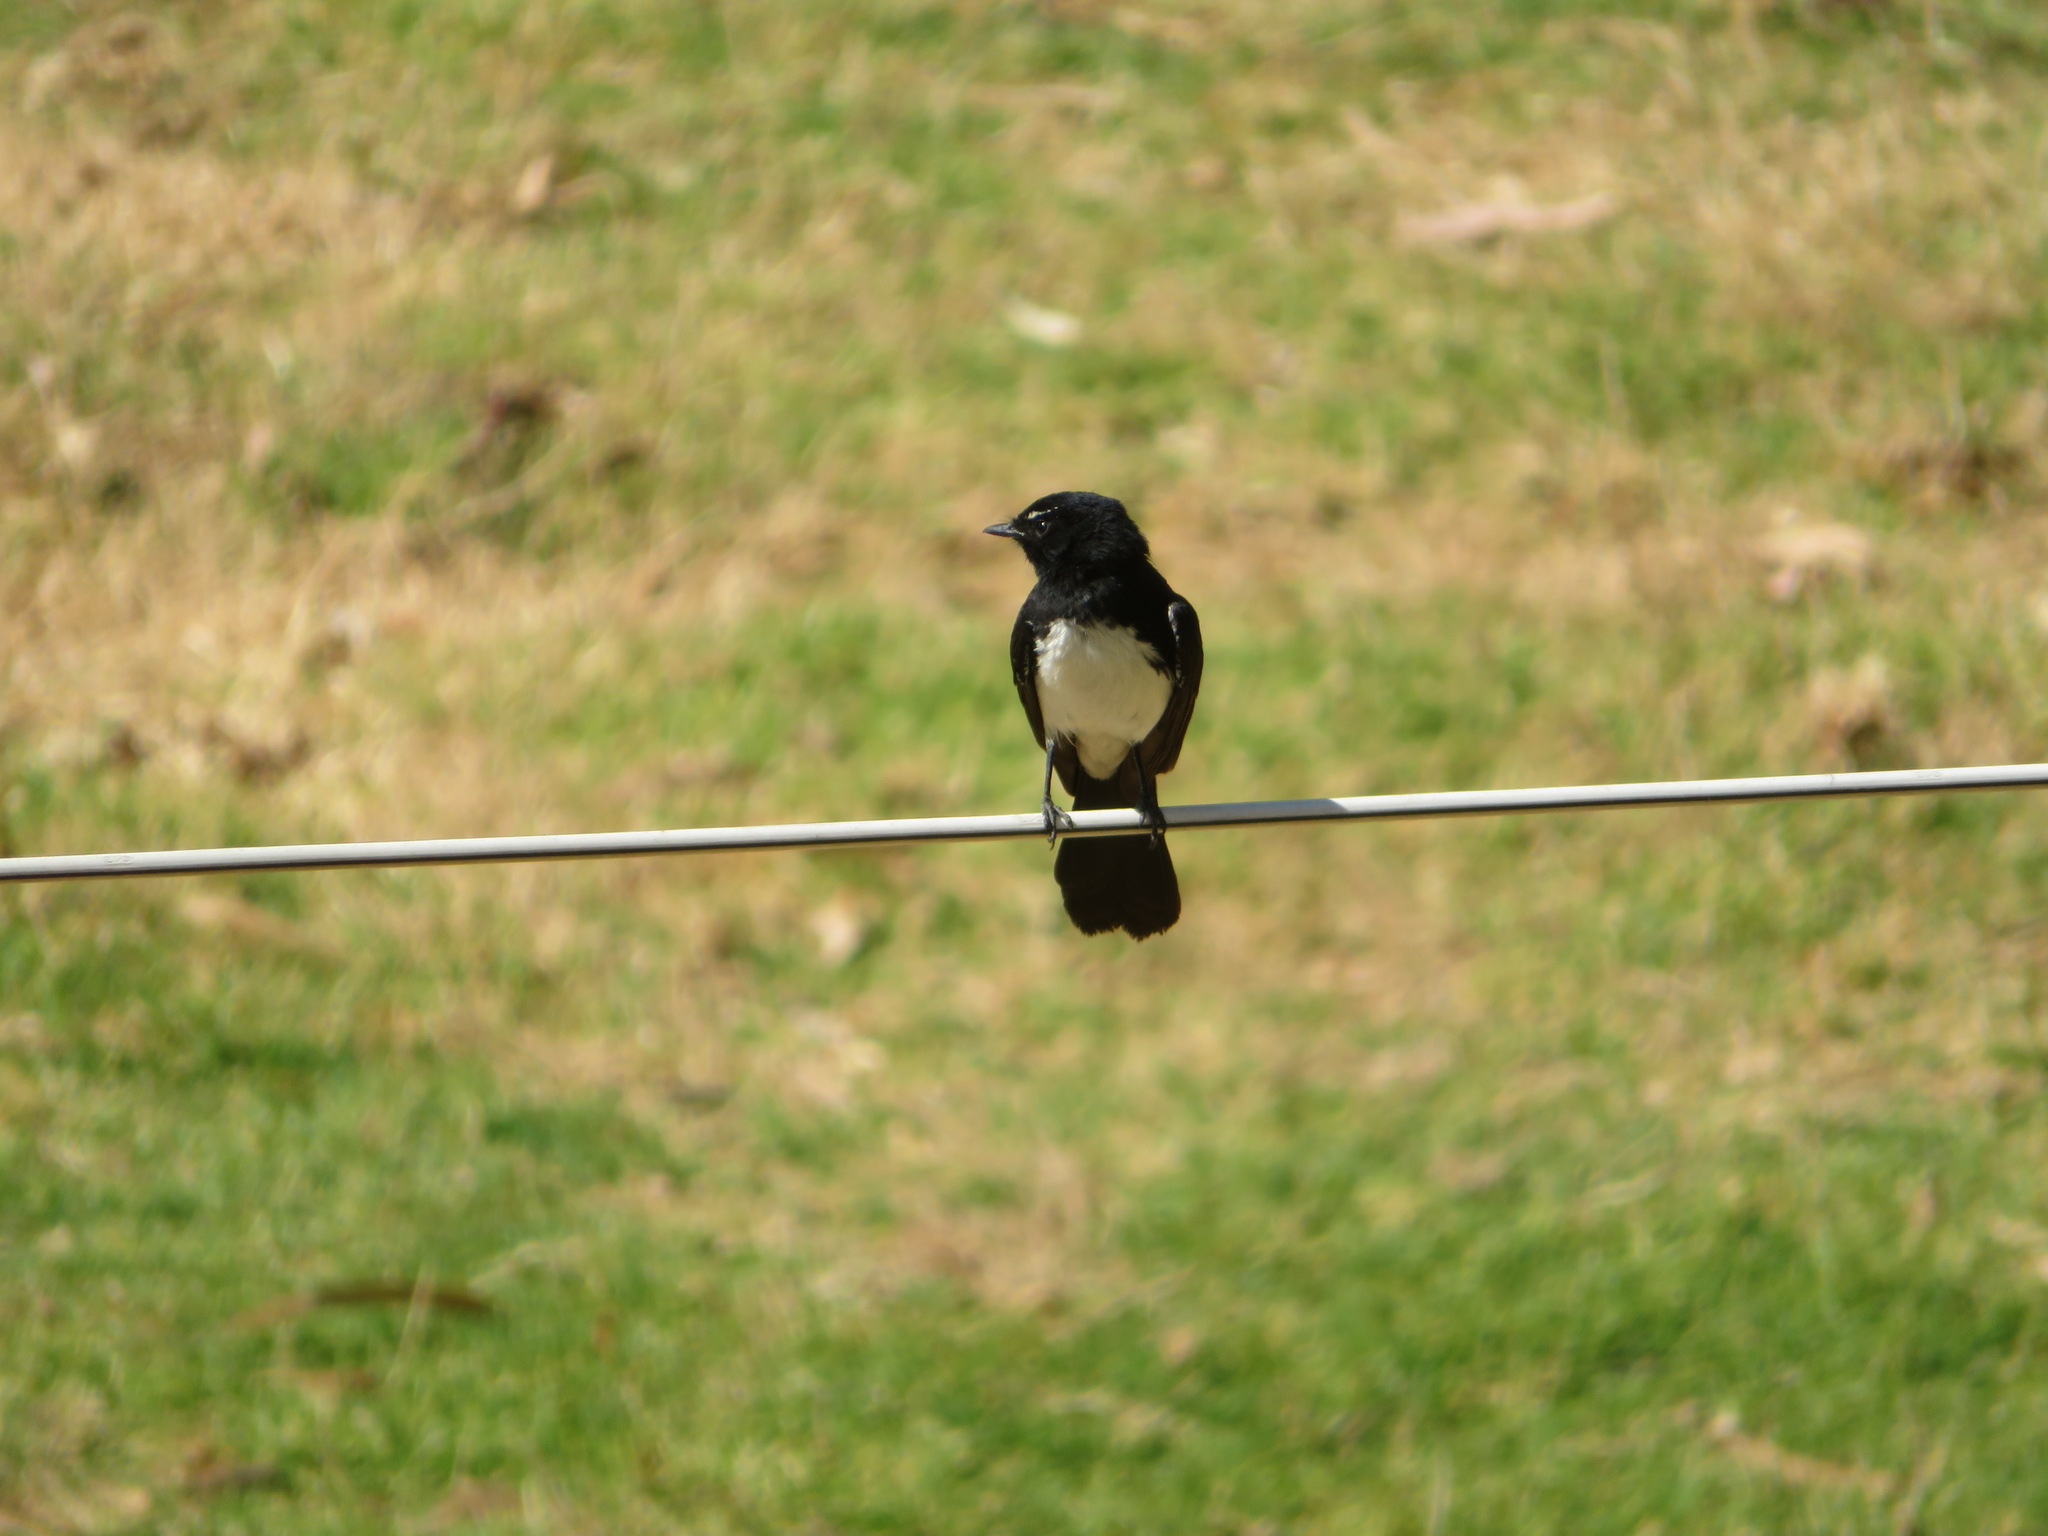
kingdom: Animalia
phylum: Chordata
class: Aves
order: Passeriformes
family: Rhipiduridae
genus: Rhipidura
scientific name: Rhipidura leucophrys
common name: Willie wagtail
